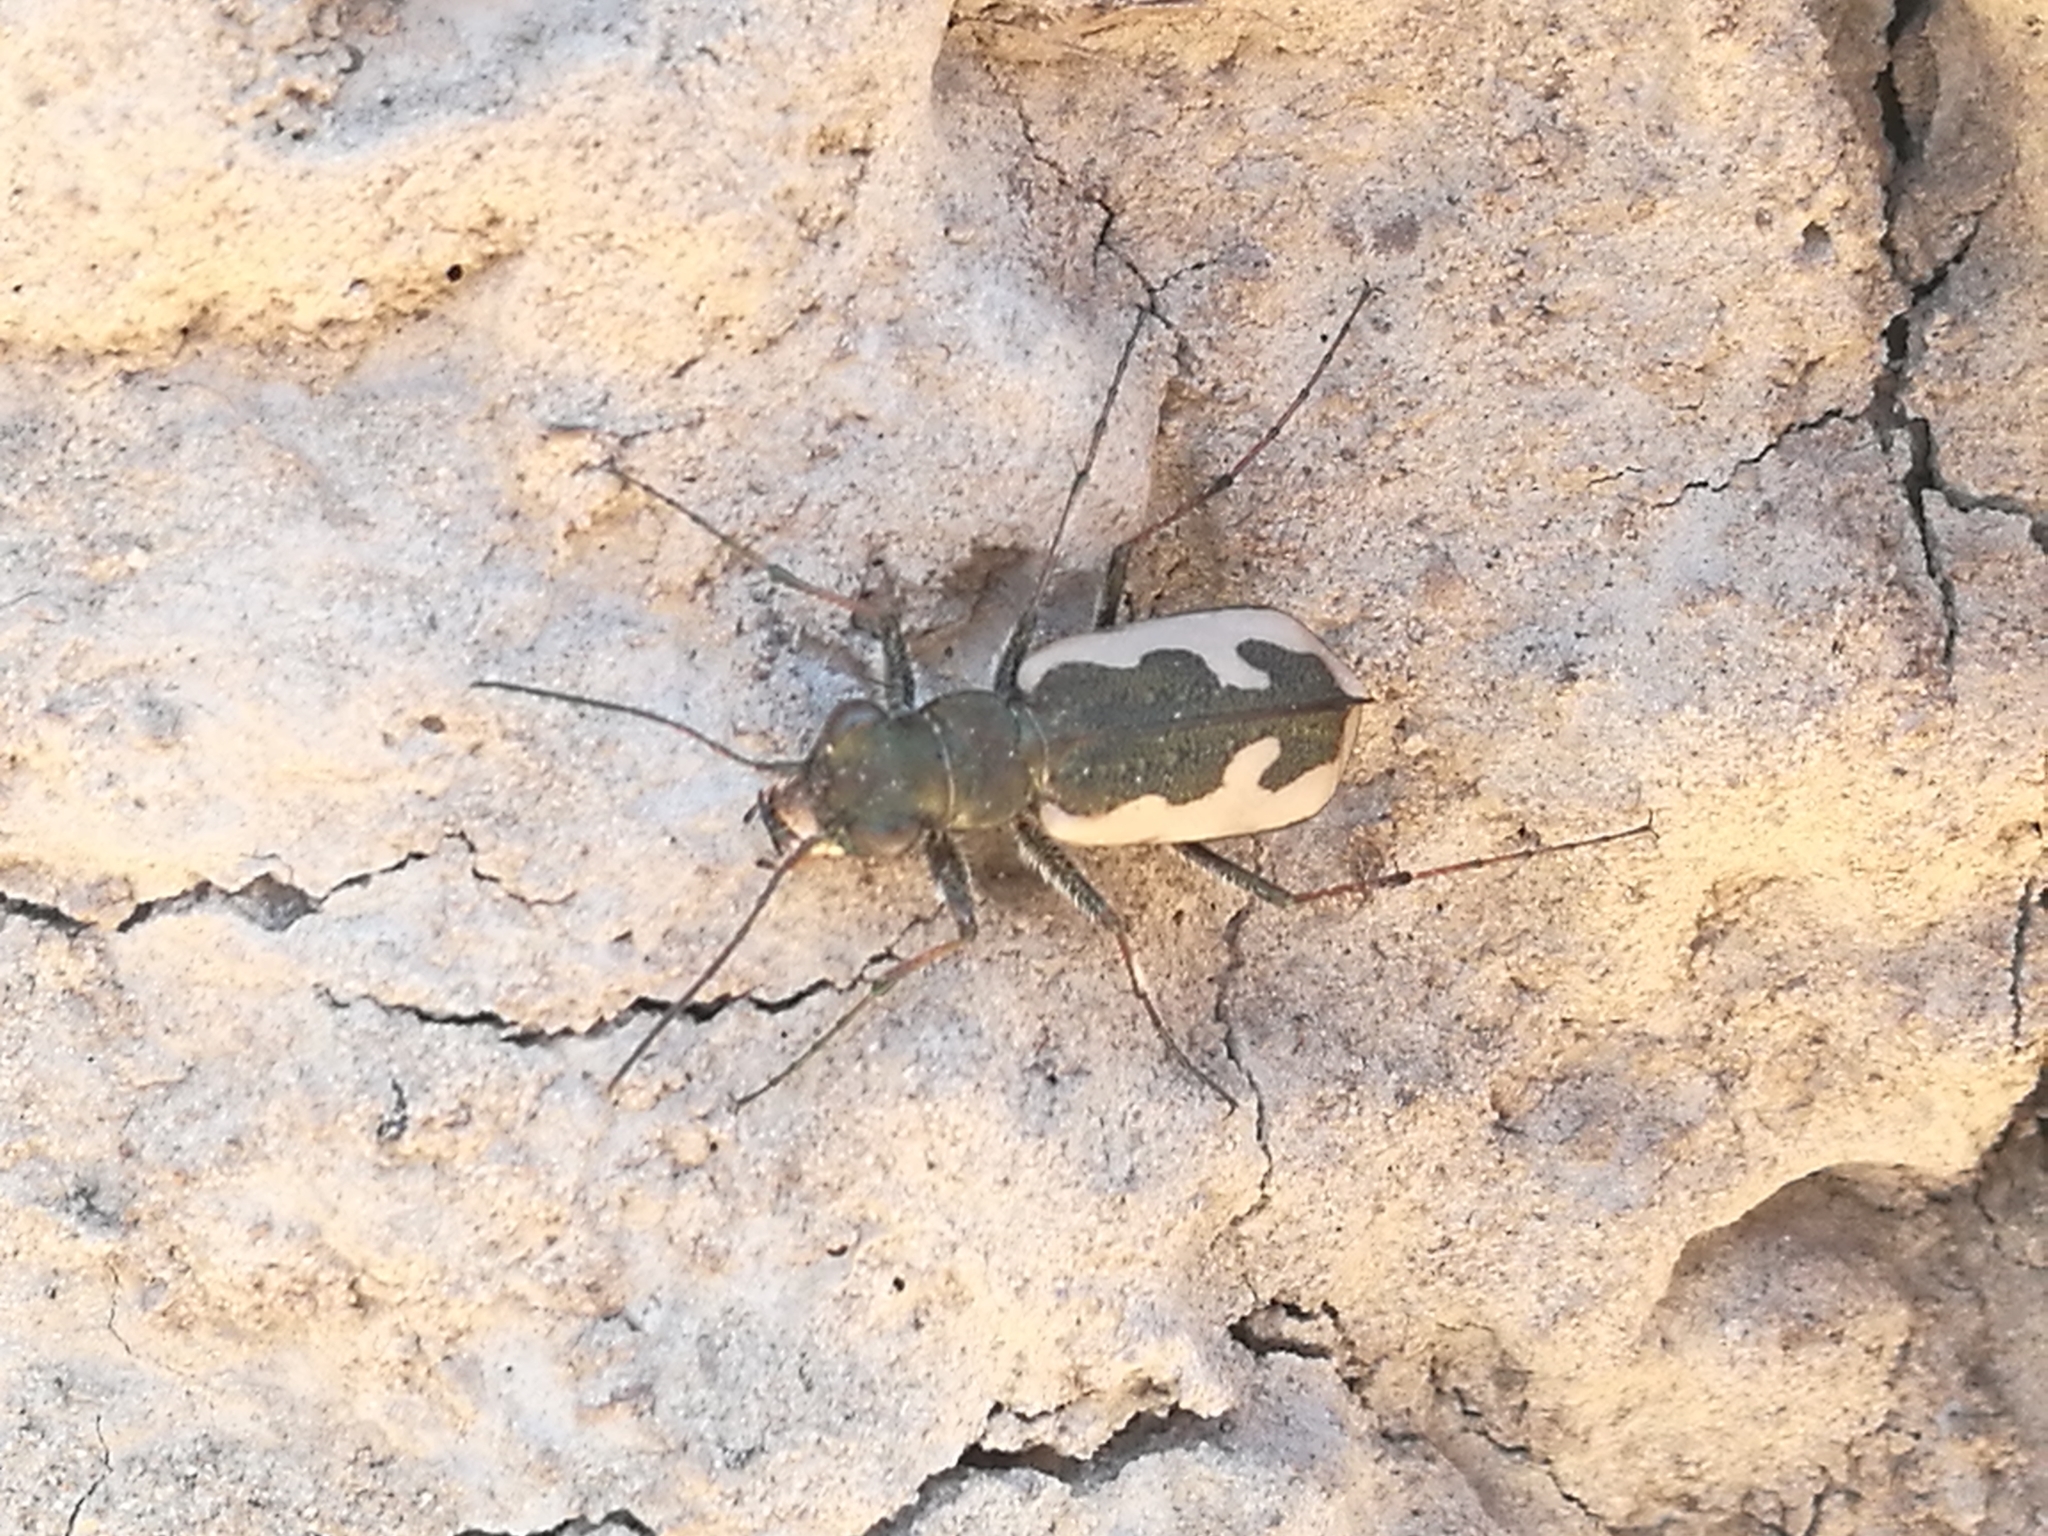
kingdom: Animalia
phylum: Arthropoda
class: Insecta
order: Coleoptera
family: Carabidae
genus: Neocicindela
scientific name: Neocicindela latecincta
